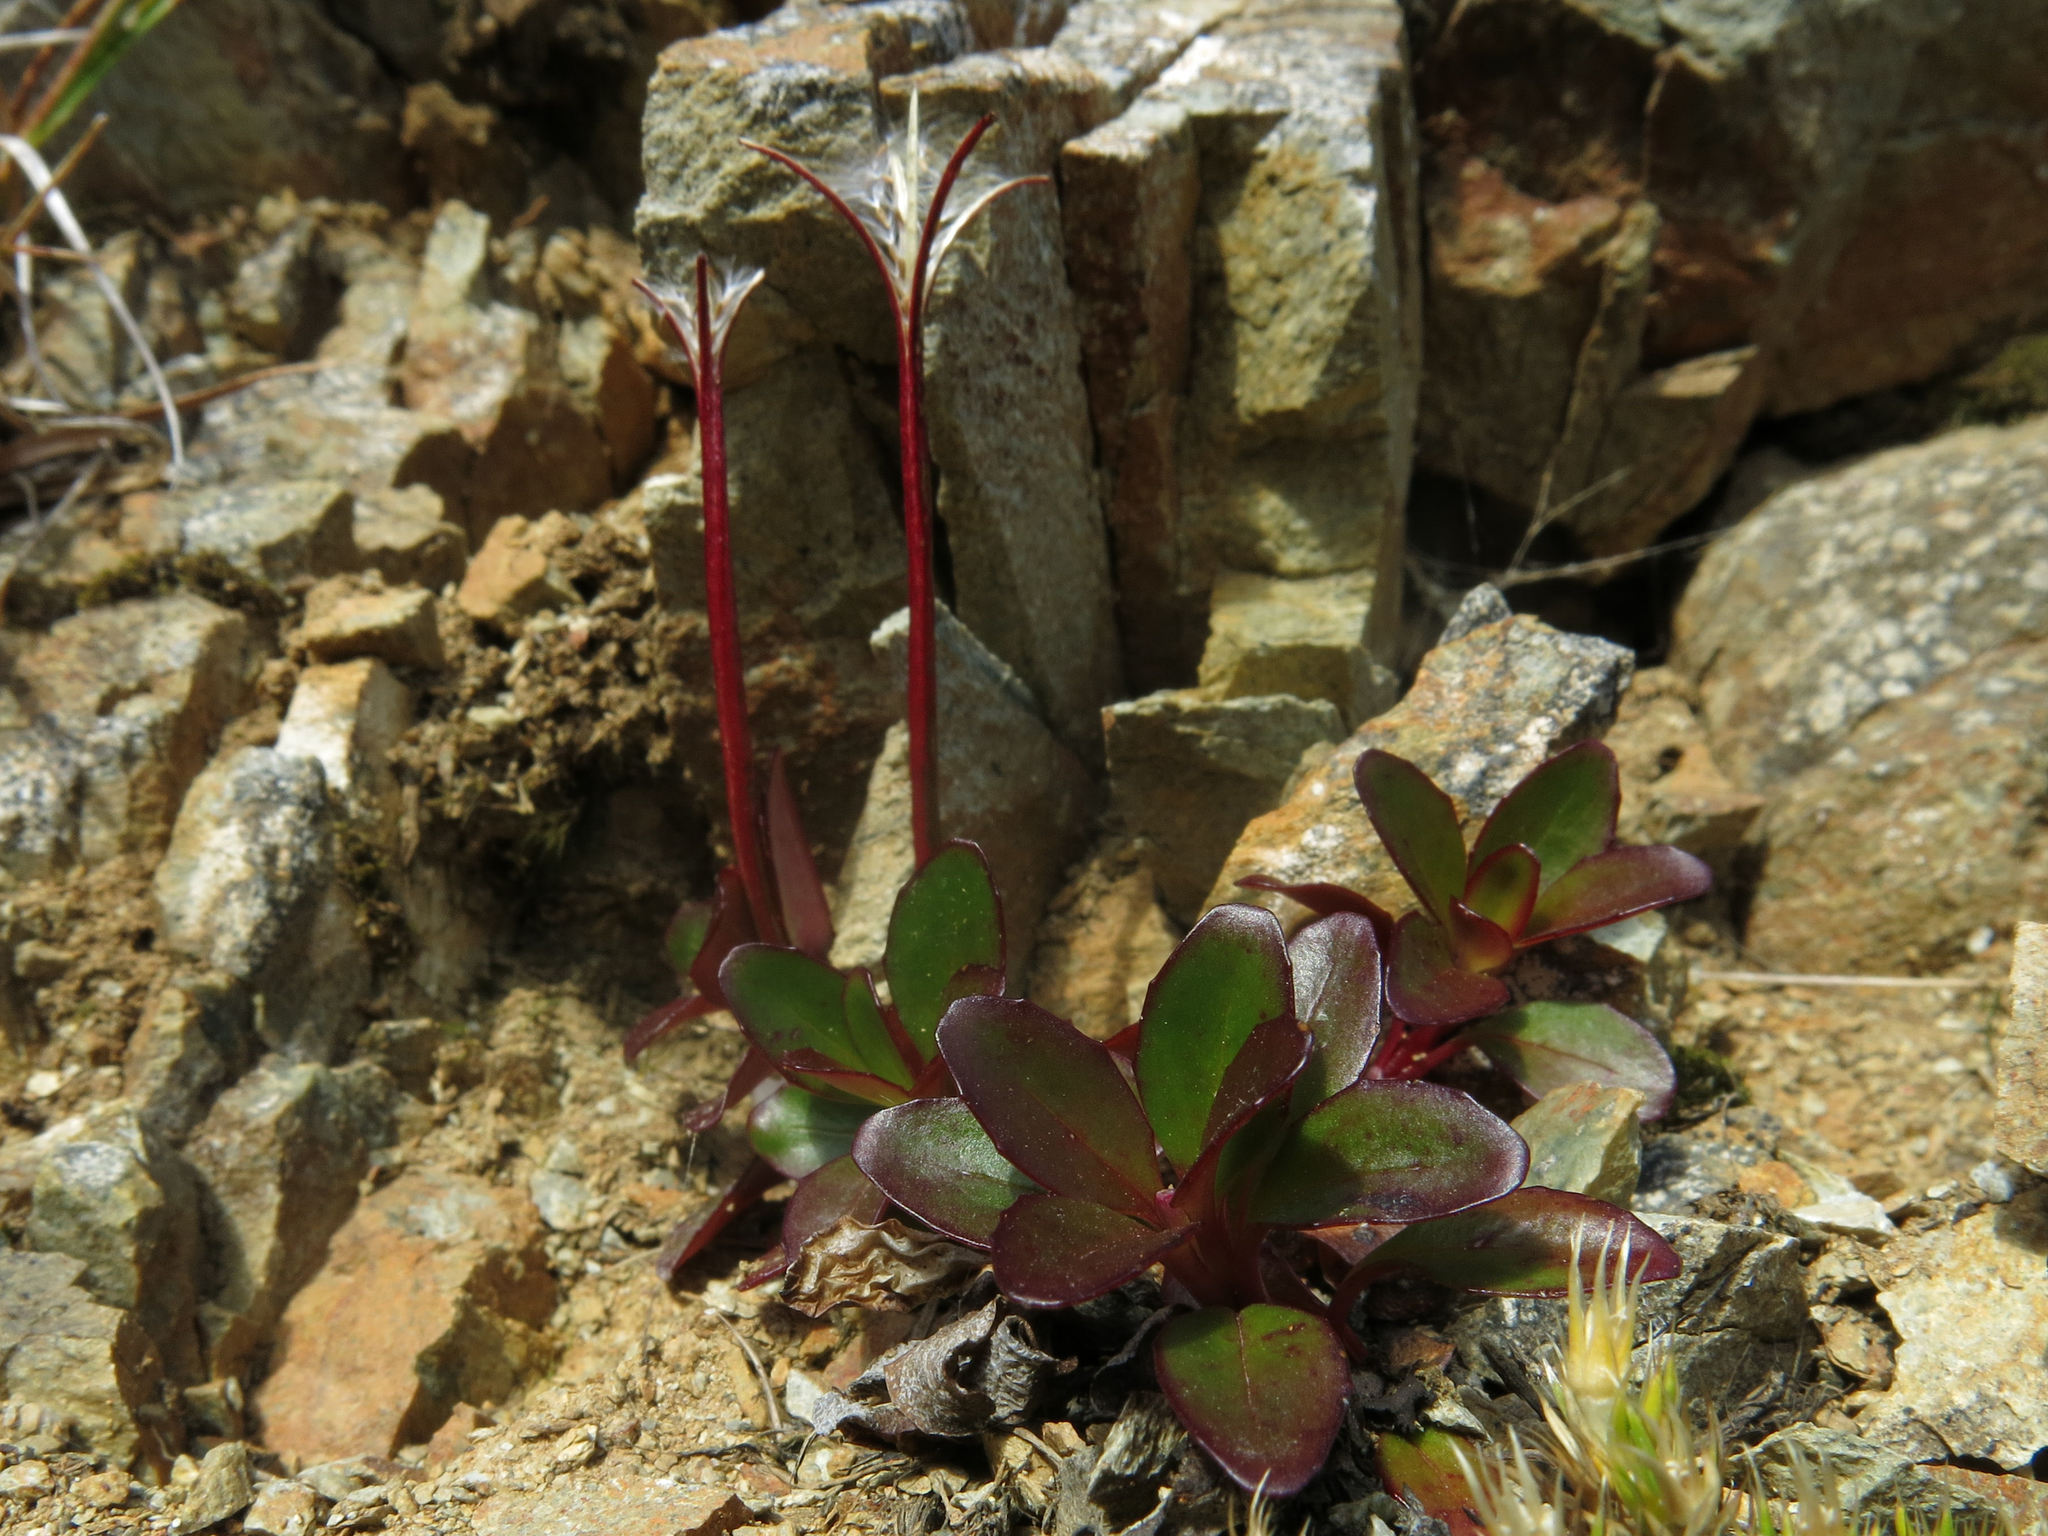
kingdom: Plantae
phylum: Tracheophyta
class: Magnoliopsida
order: Myrtales
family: Onagraceae
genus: Epilobium
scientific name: Epilobium crassum
